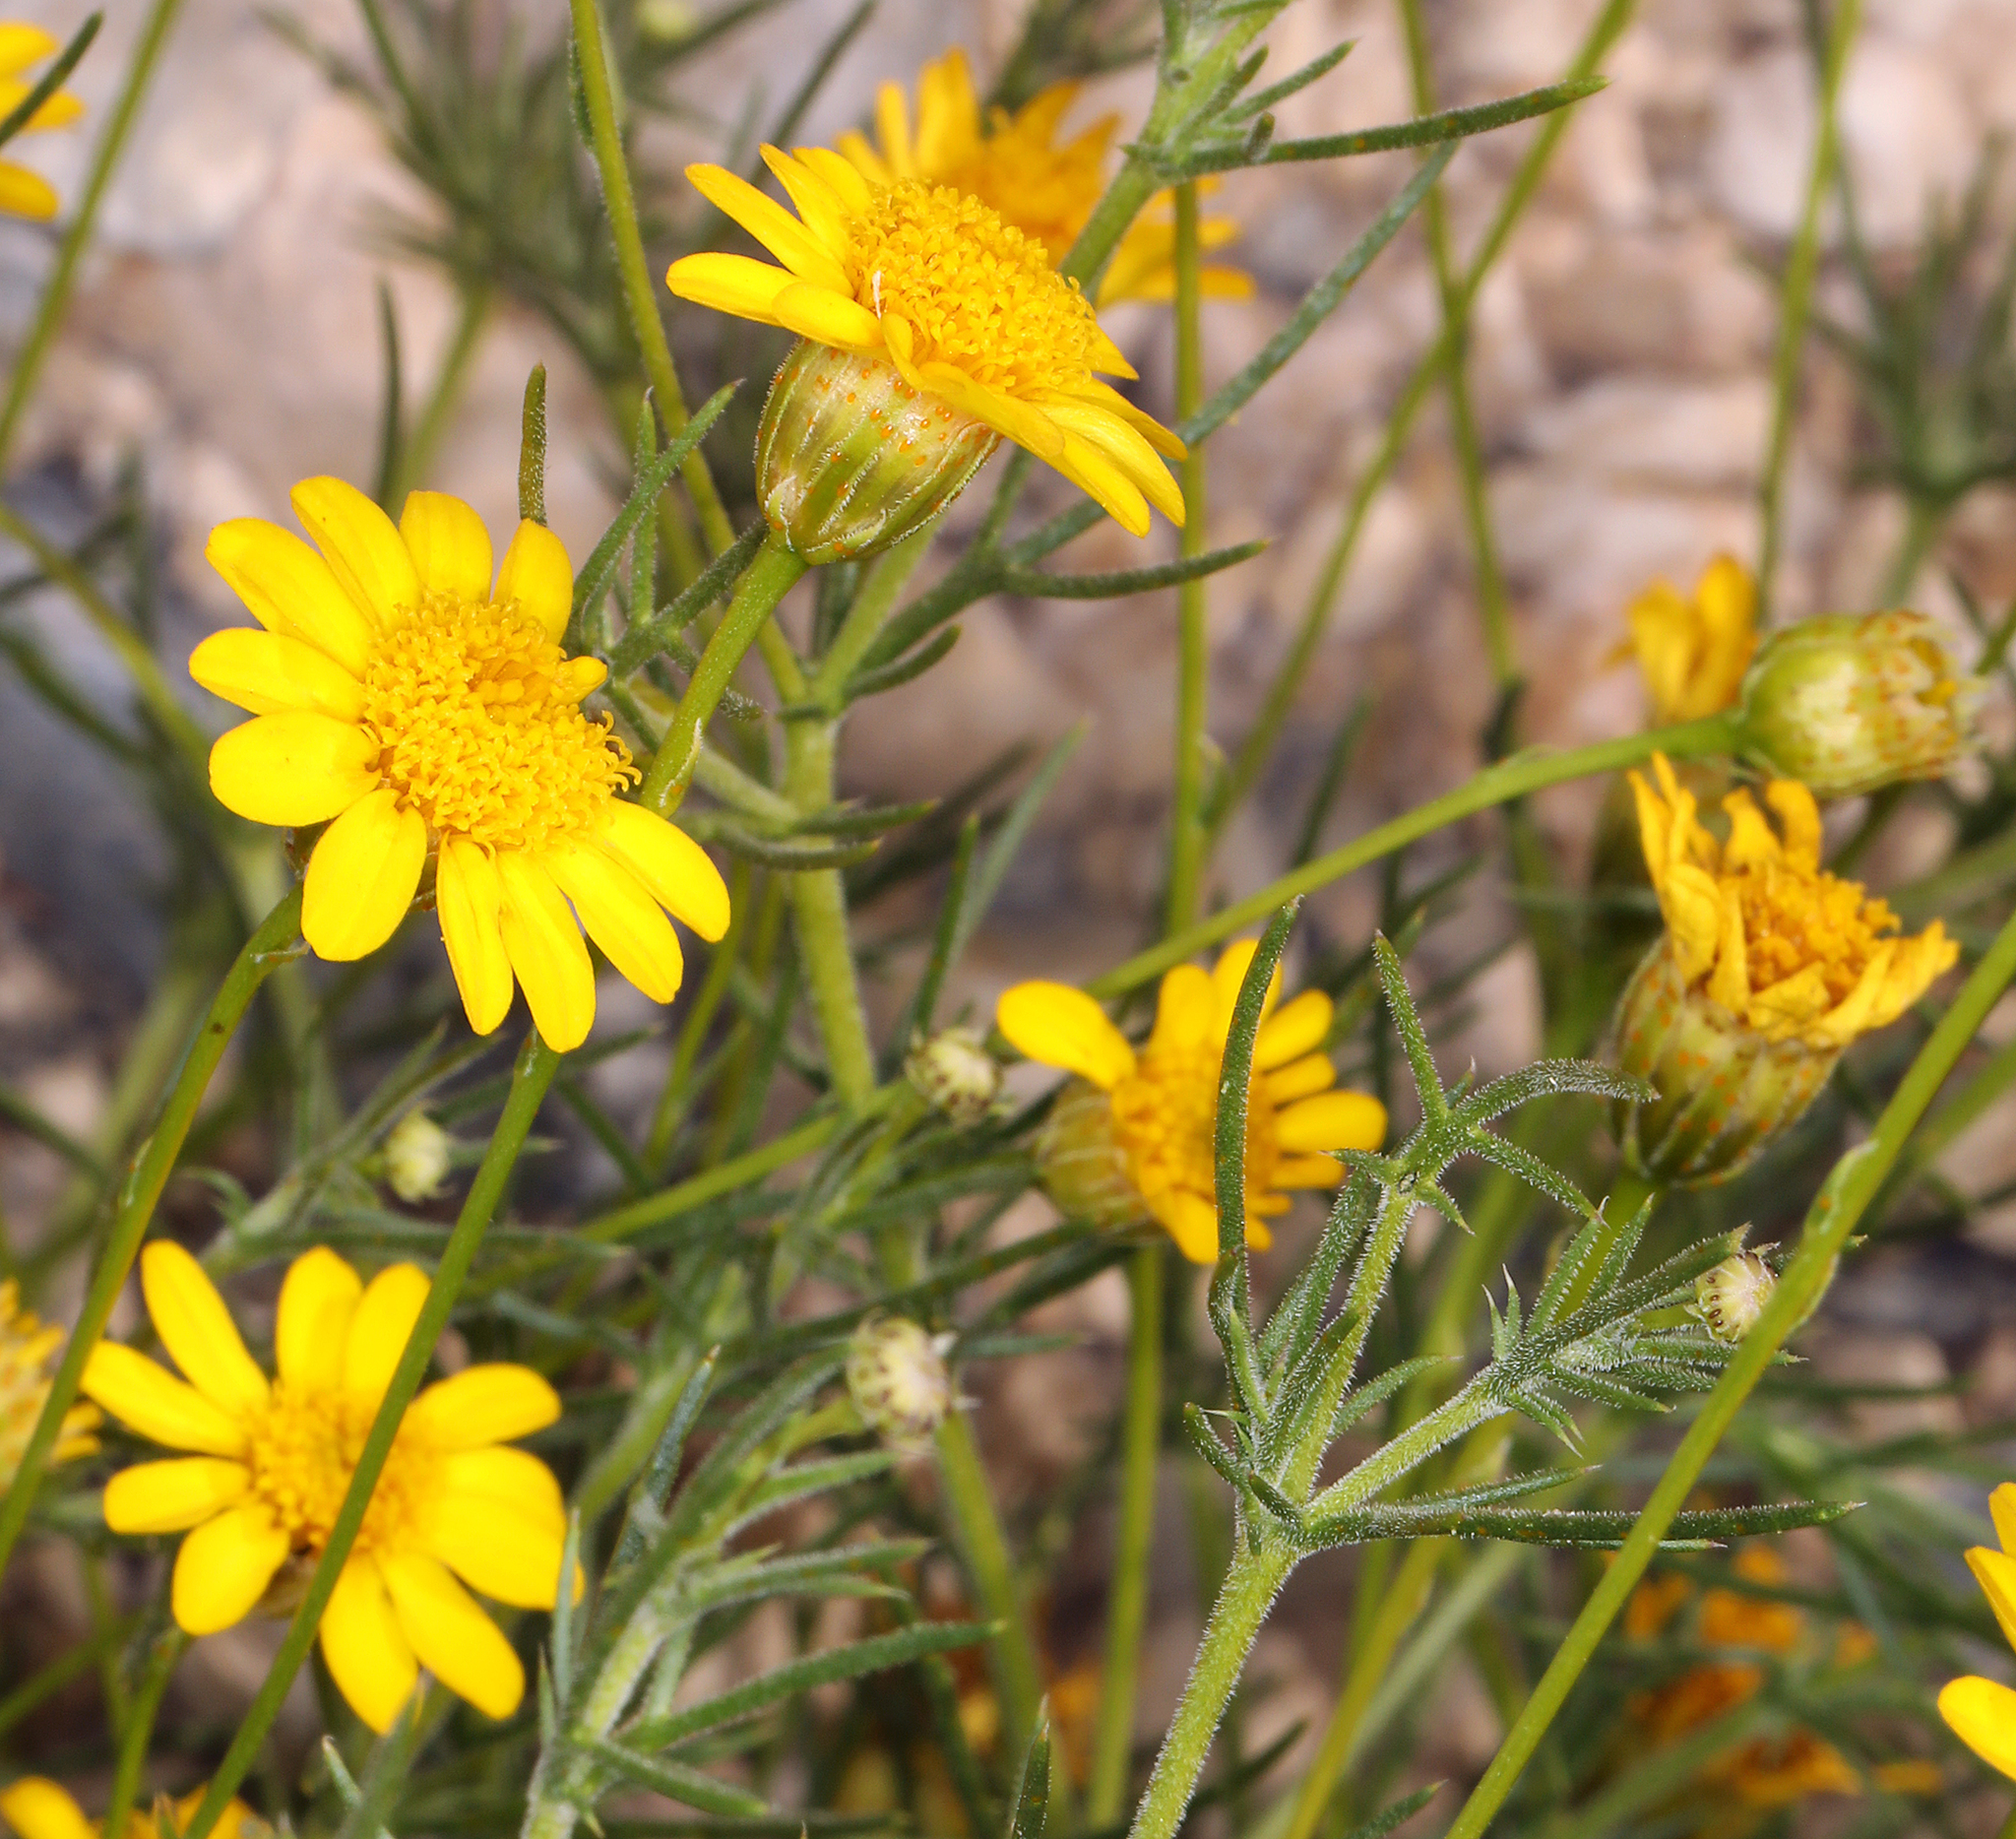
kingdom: Plantae
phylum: Tracheophyta
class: Magnoliopsida
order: Asterales
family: Asteraceae
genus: Thymophylla
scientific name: Thymophylla pentachaeta
